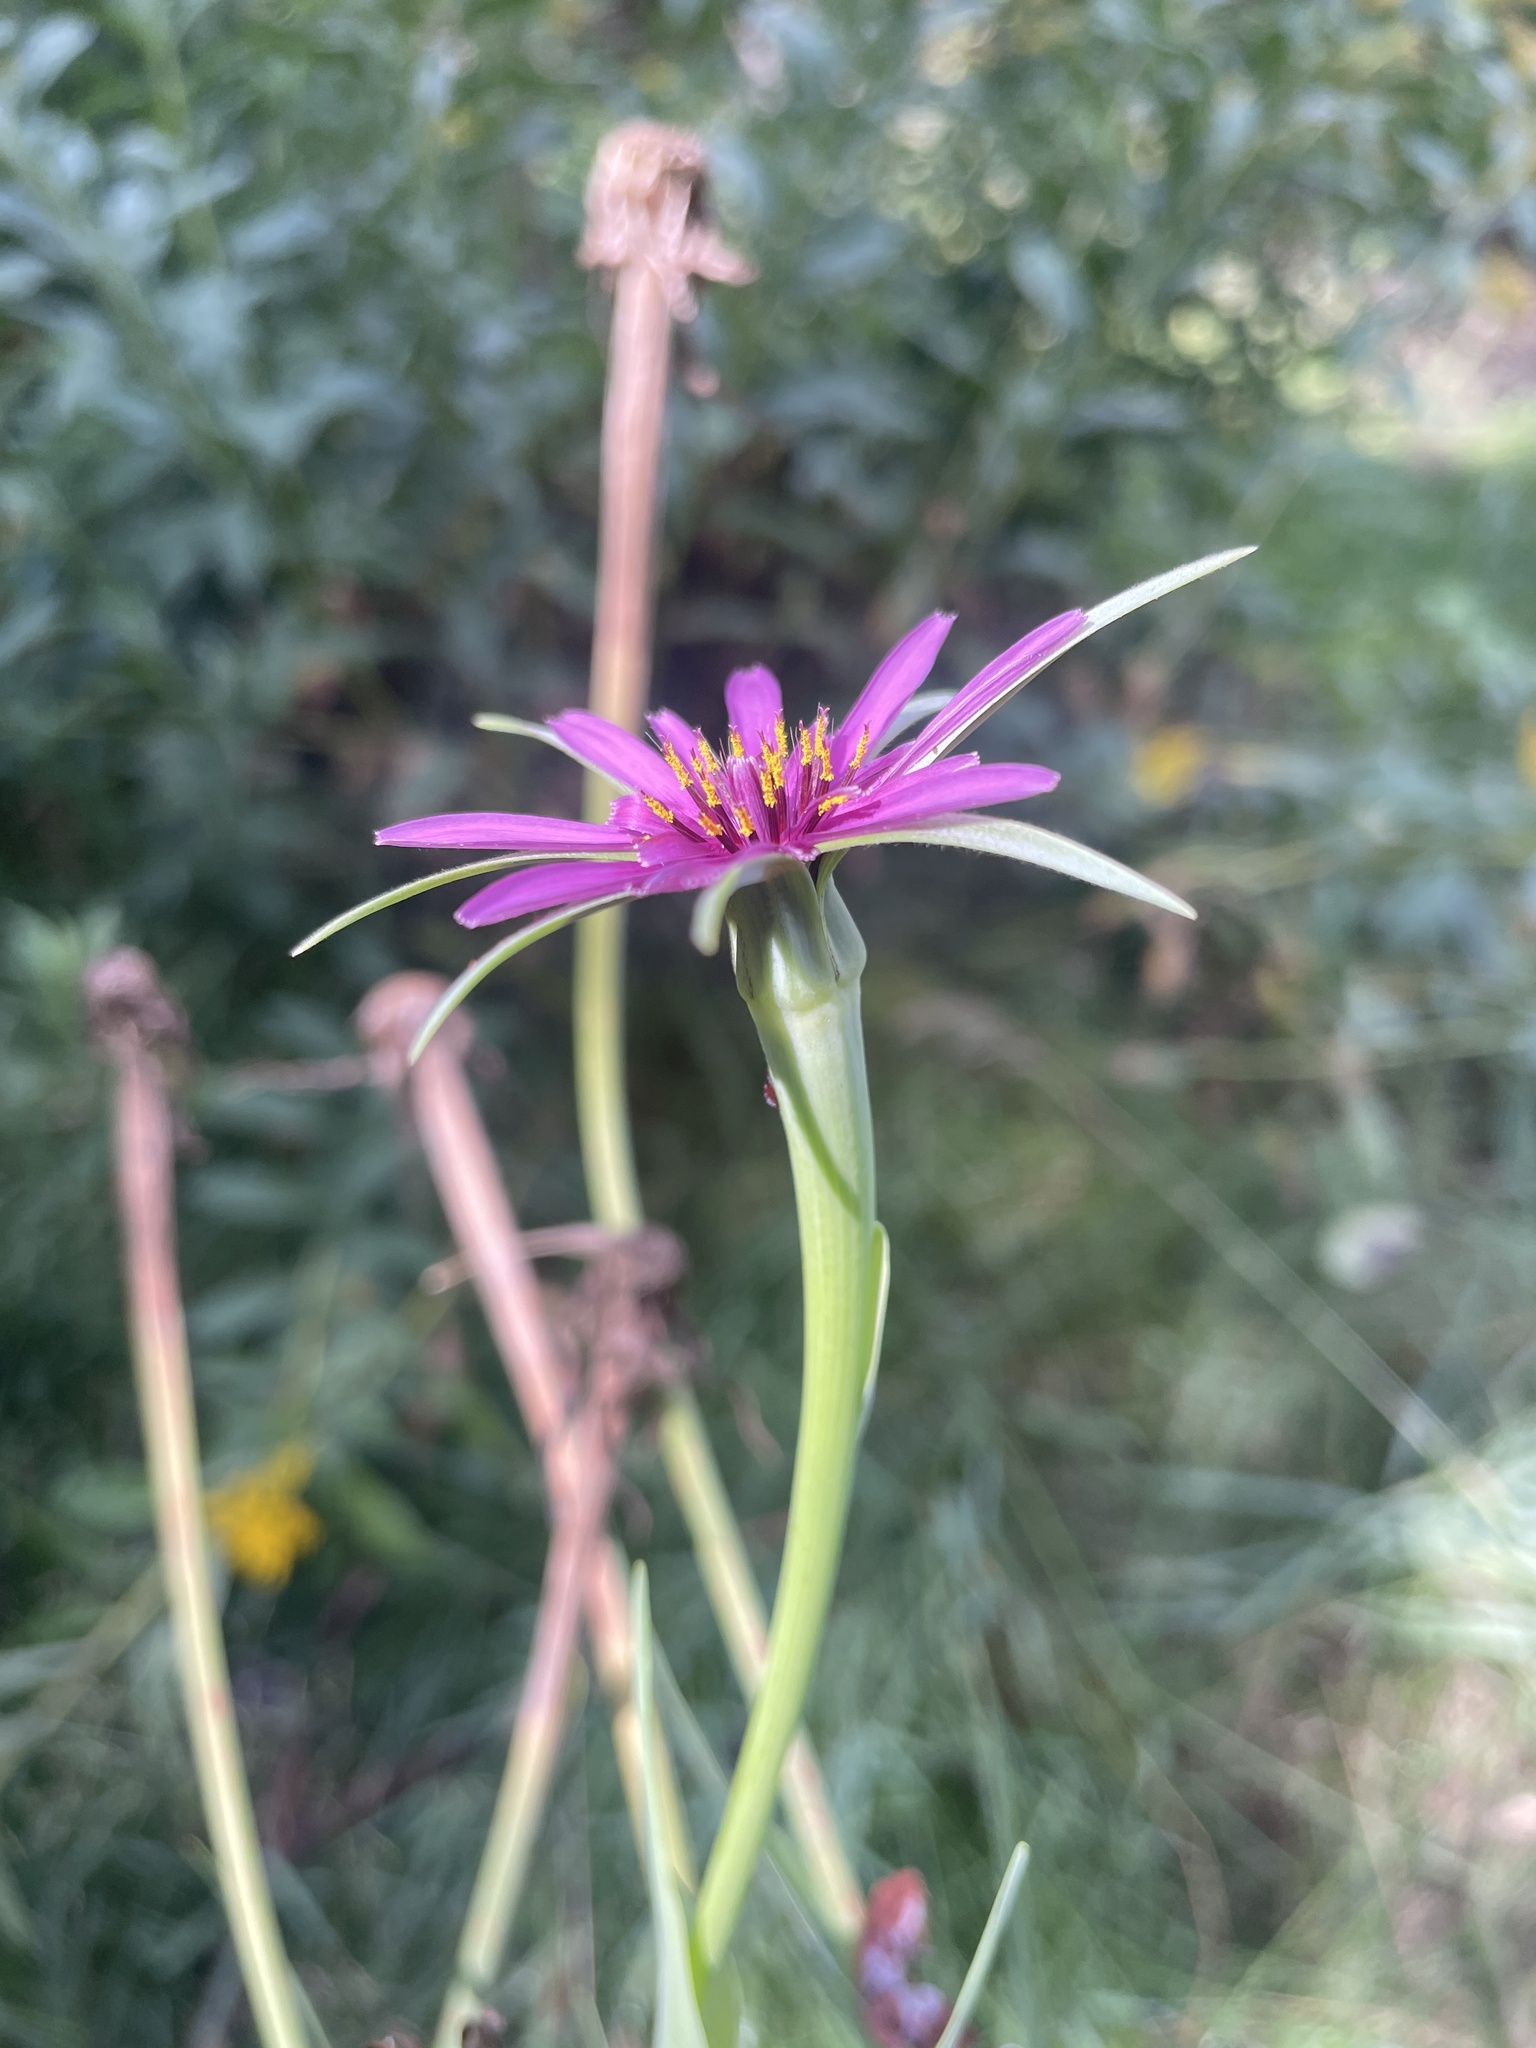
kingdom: Plantae
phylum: Tracheophyta
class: Magnoliopsida
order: Asterales
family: Asteraceae
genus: Tragopogon
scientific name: Tragopogon porrifolius
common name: Salsify
